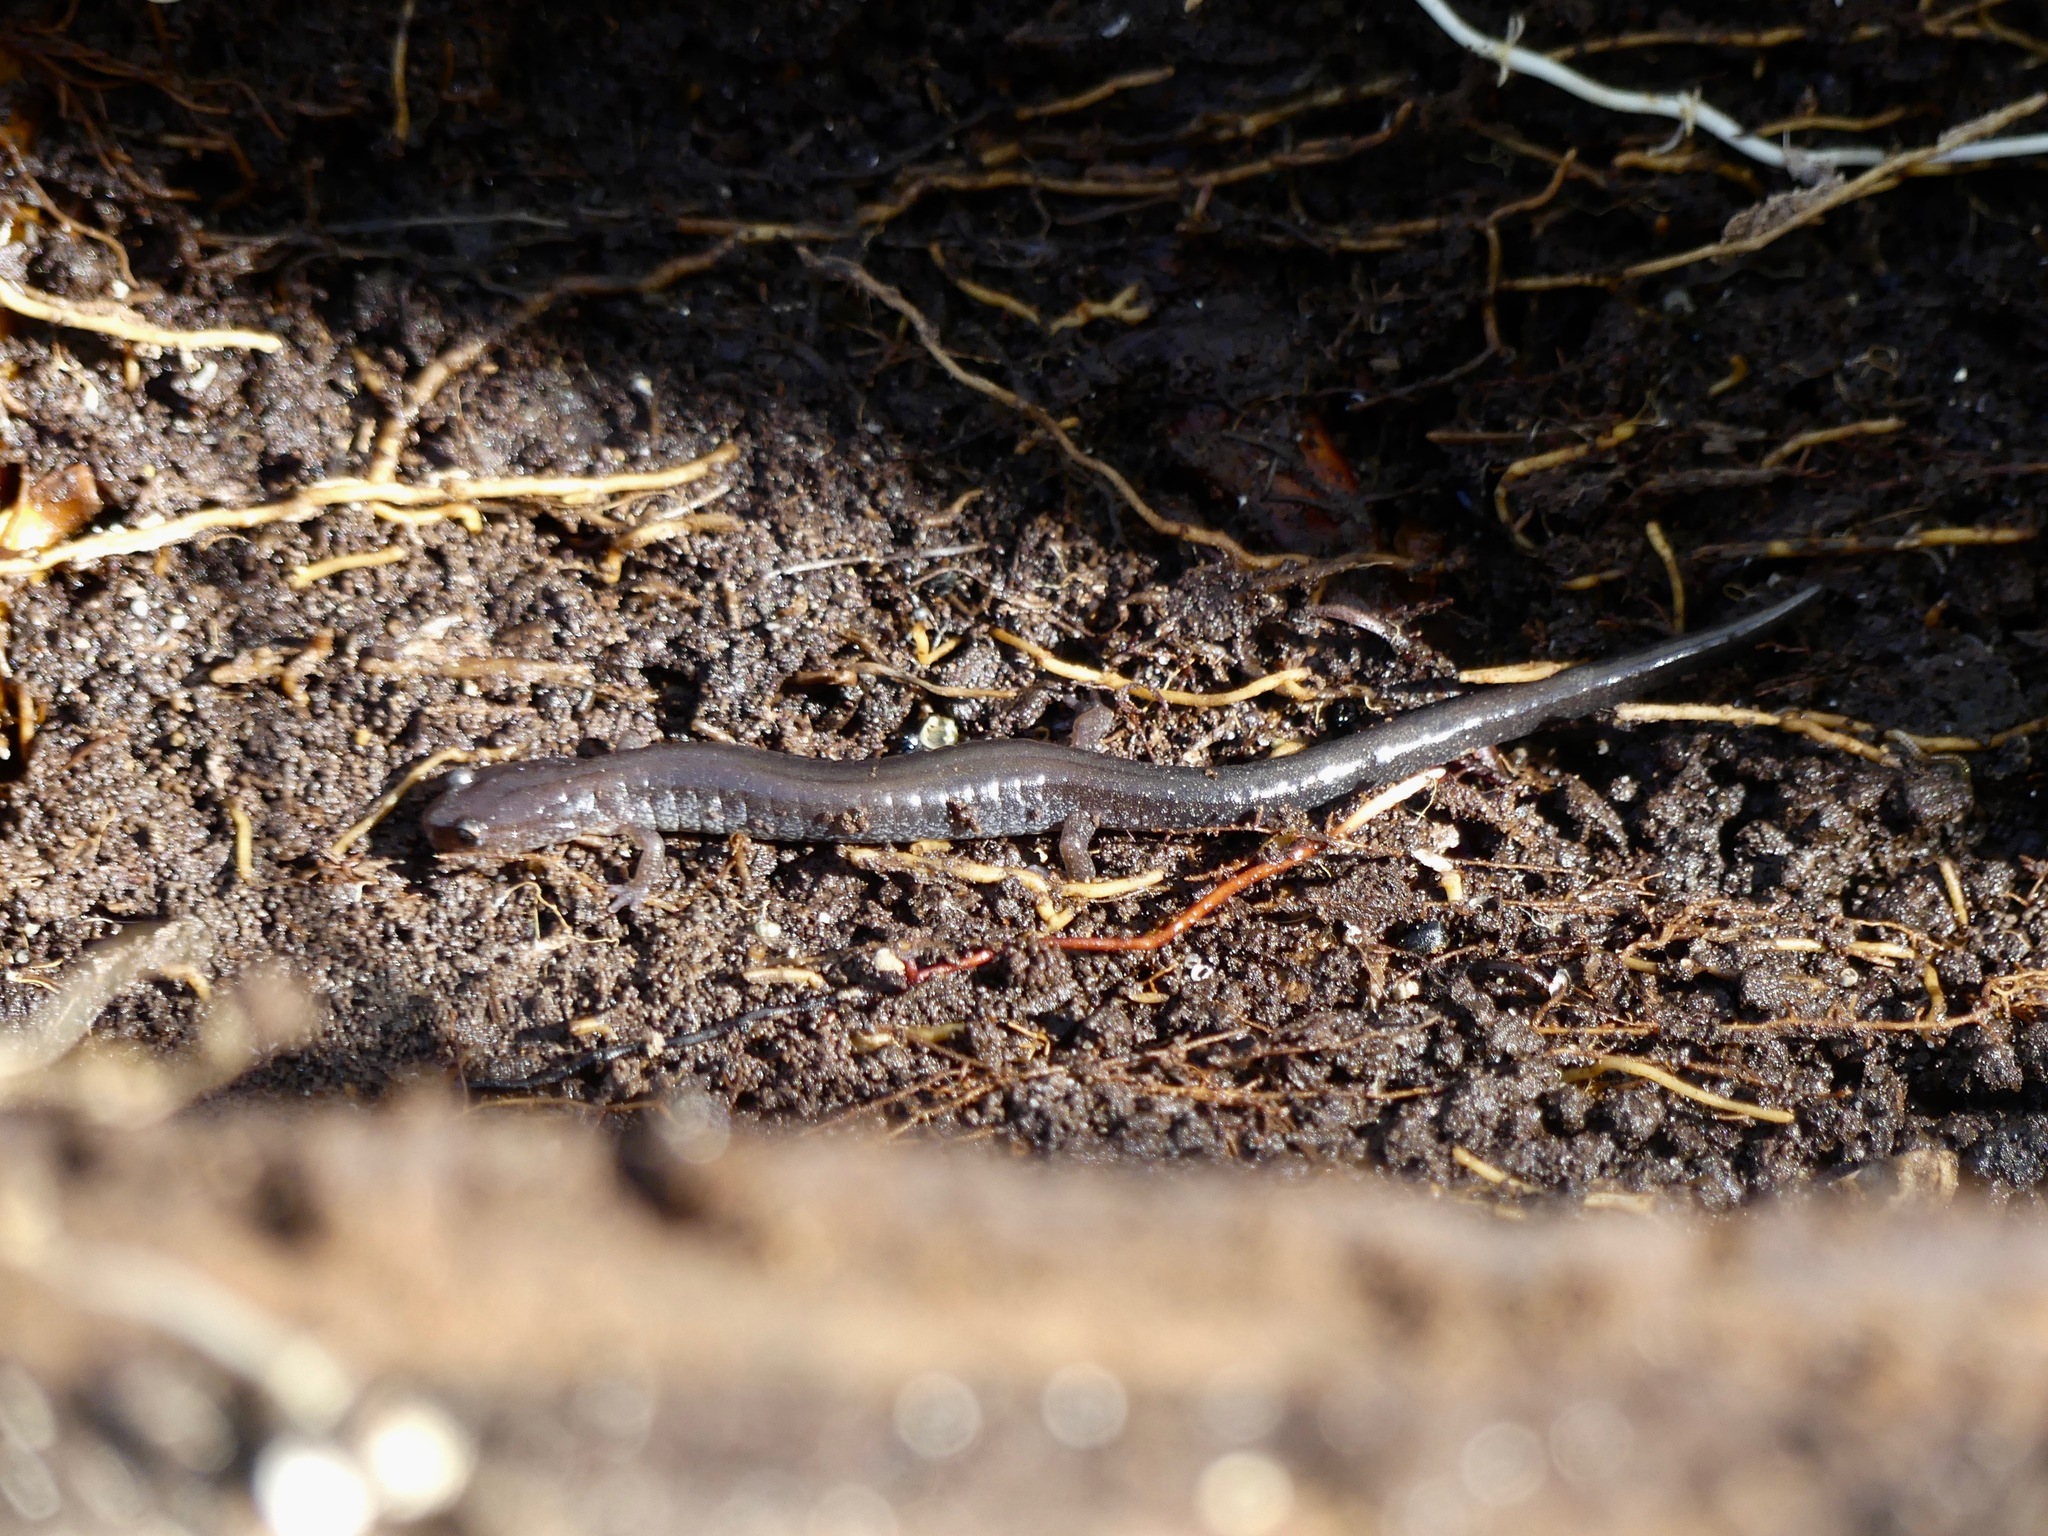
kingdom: Animalia
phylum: Chordata
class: Amphibia
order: Caudata
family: Plethodontidae
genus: Plethodon
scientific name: Plethodon cinereus
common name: Redback salamander
